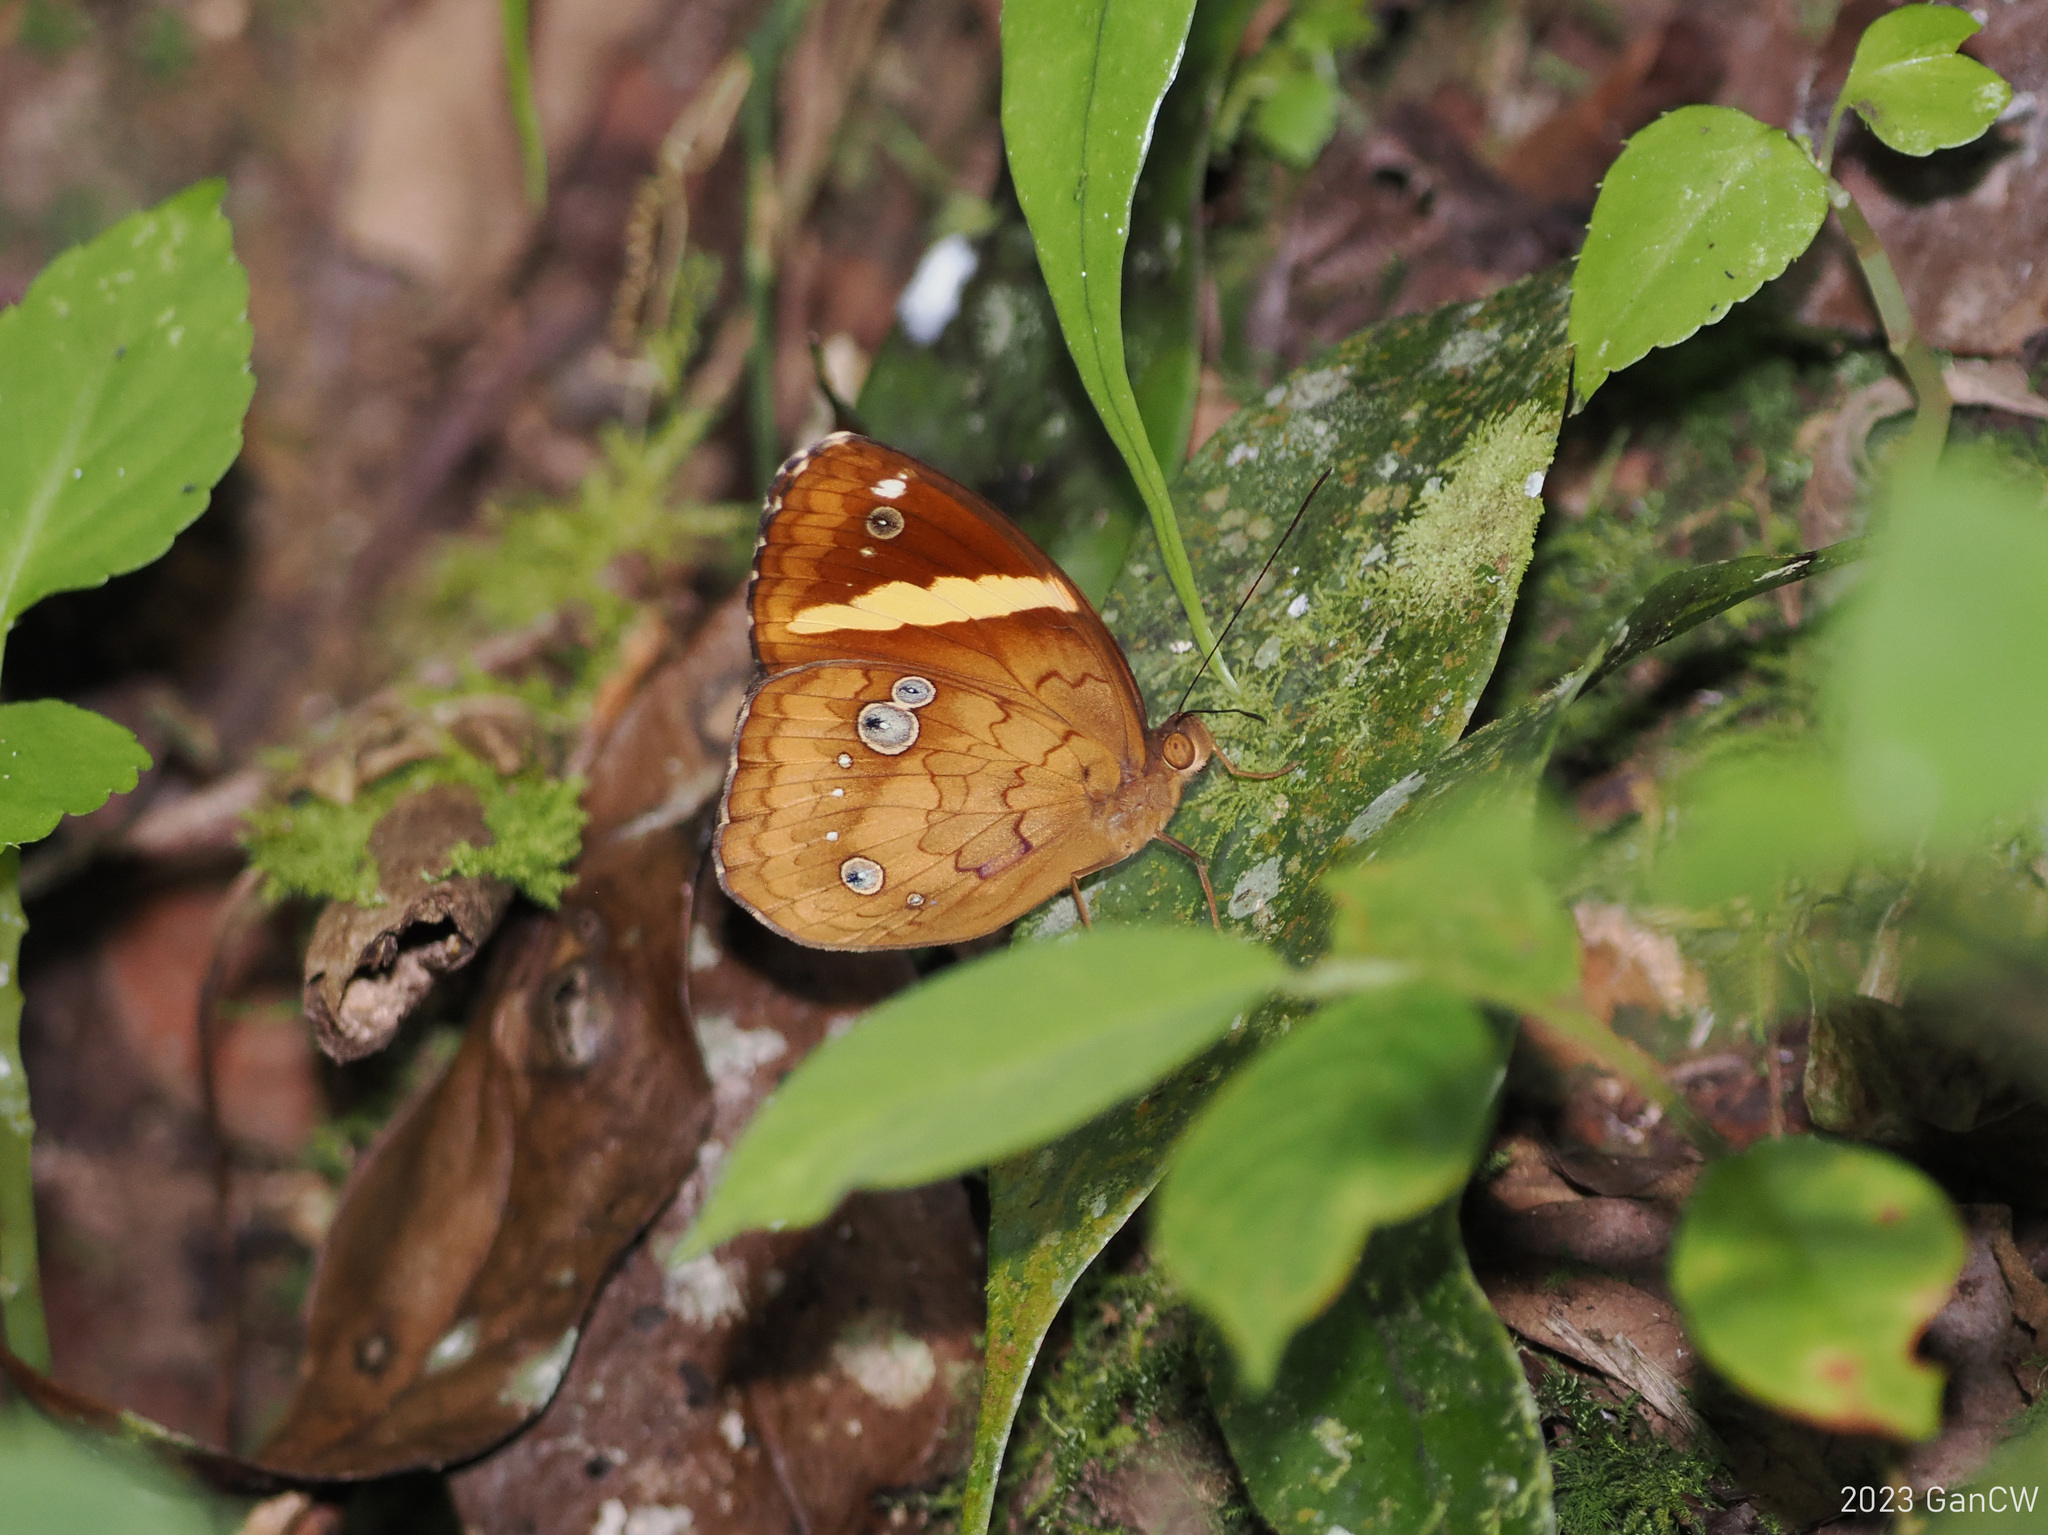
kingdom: Animalia
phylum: Arthropoda
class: Insecta
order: Lepidoptera
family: Nymphalidae
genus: Xanthotaenia
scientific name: Xanthotaenia busiris
